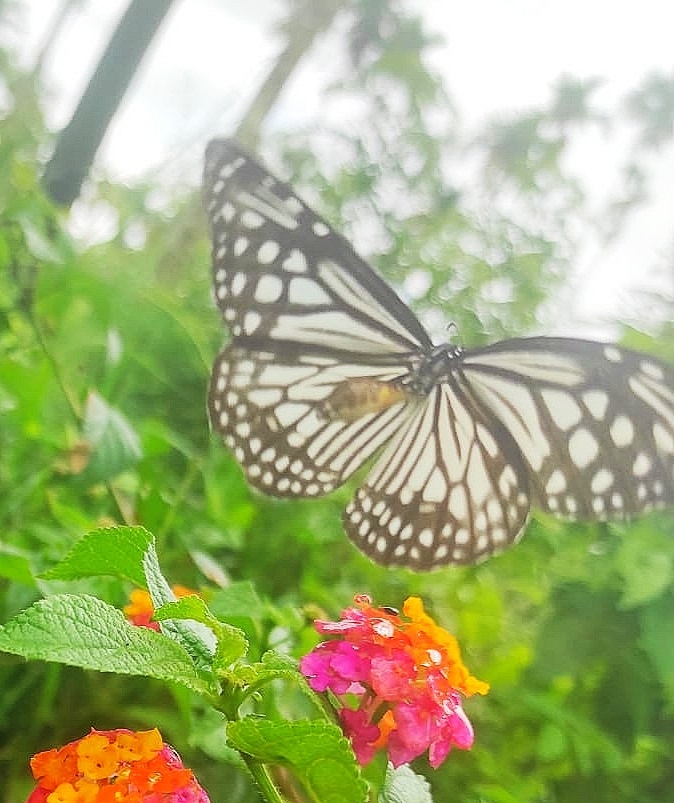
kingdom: Animalia
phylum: Arthropoda
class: Insecta
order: Lepidoptera
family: Nymphalidae
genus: Parantica
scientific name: Parantica aglea
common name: Glassy tiger
